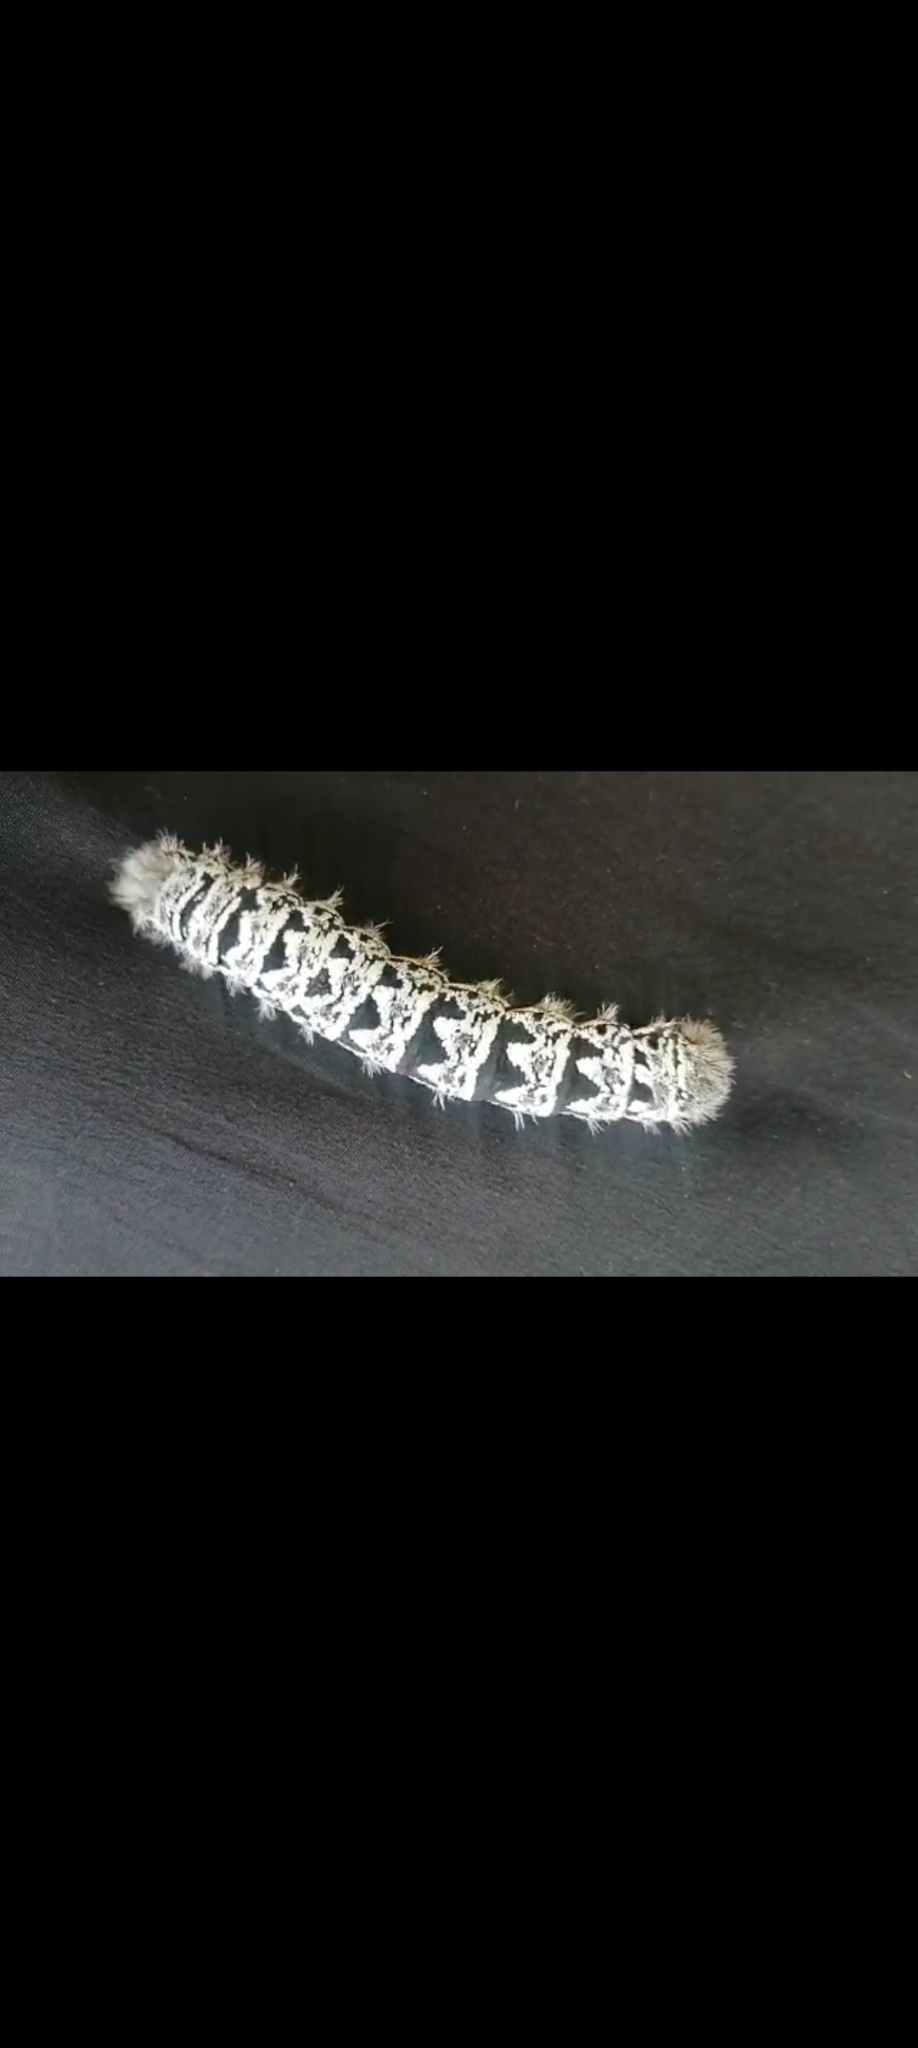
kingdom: Animalia
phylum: Arthropoda
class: Insecta
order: Lepidoptera
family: Saturniidae
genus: Gonimbrasia
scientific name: Gonimbrasia tyrrhea
